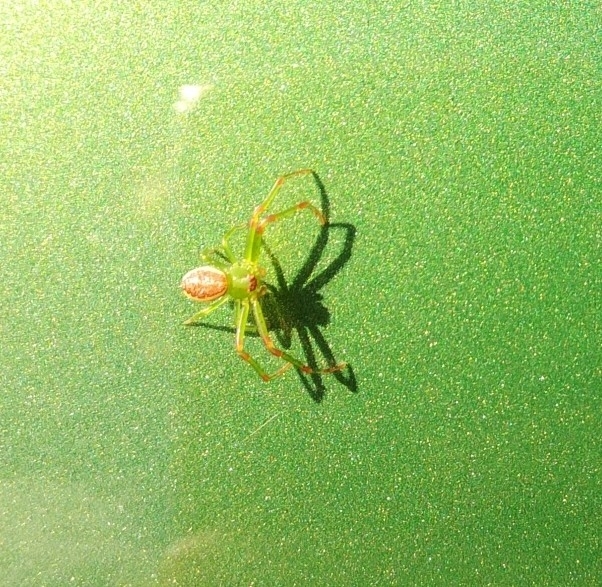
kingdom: Animalia
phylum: Arthropoda
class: Arachnida
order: Araneae
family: Thomisidae
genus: Diaea
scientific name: Diaea dorsata
